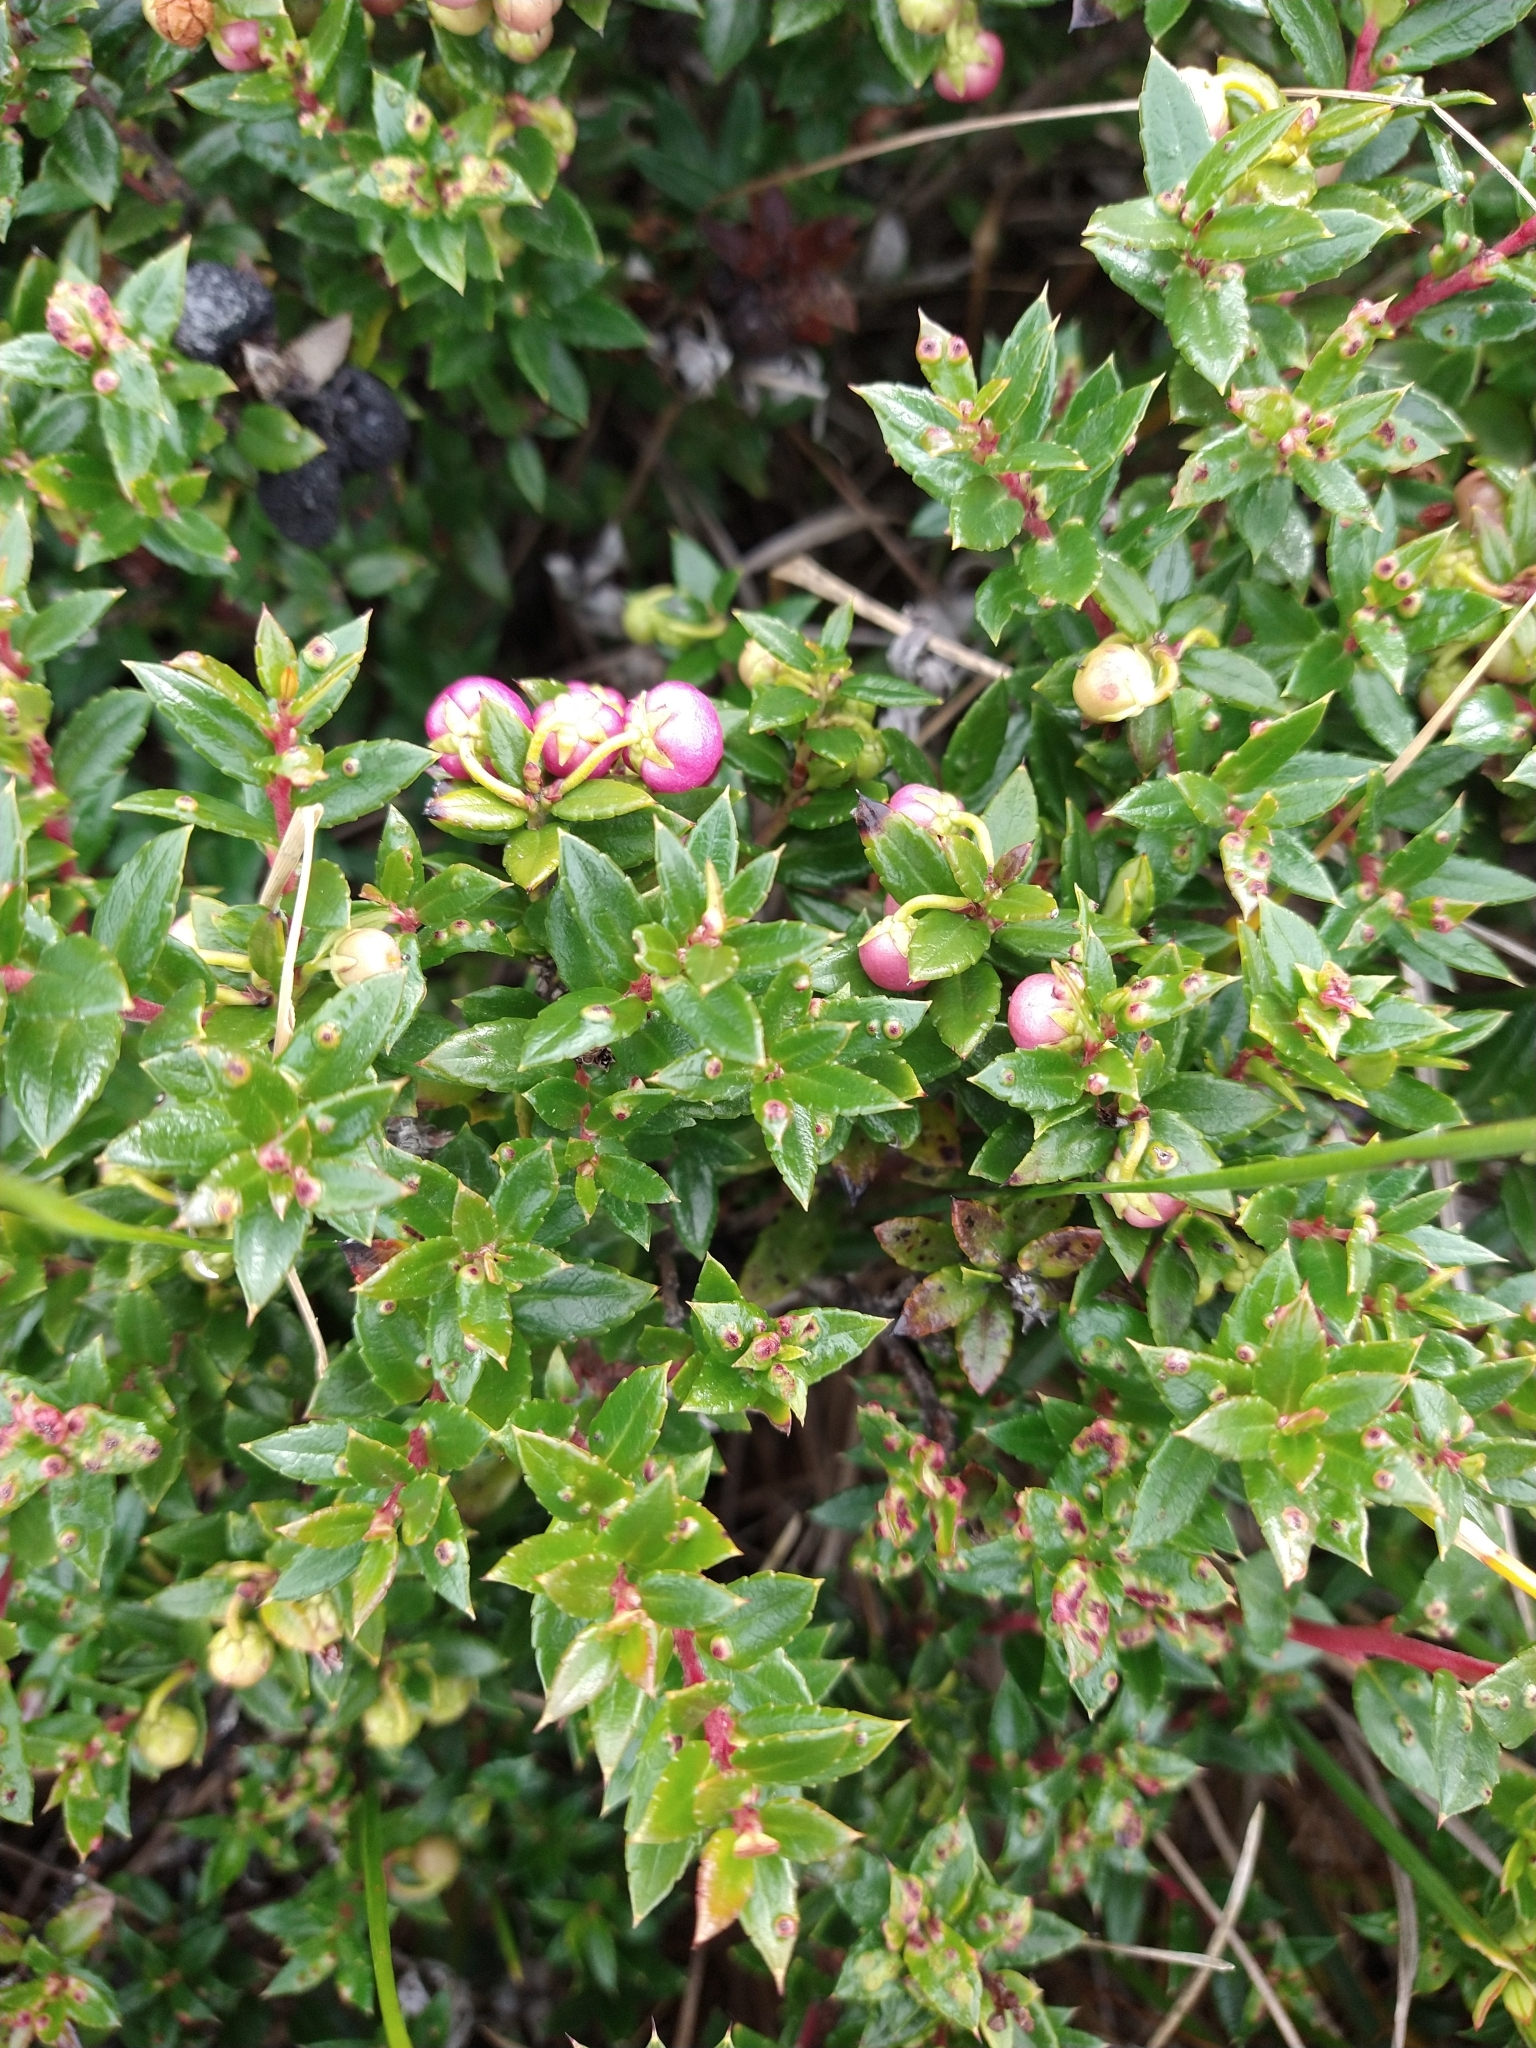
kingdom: Plantae
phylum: Tracheophyta
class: Magnoliopsida
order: Ericales
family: Ericaceae
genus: Gaultheria
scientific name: Gaultheria mucronata
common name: Prickly heath
